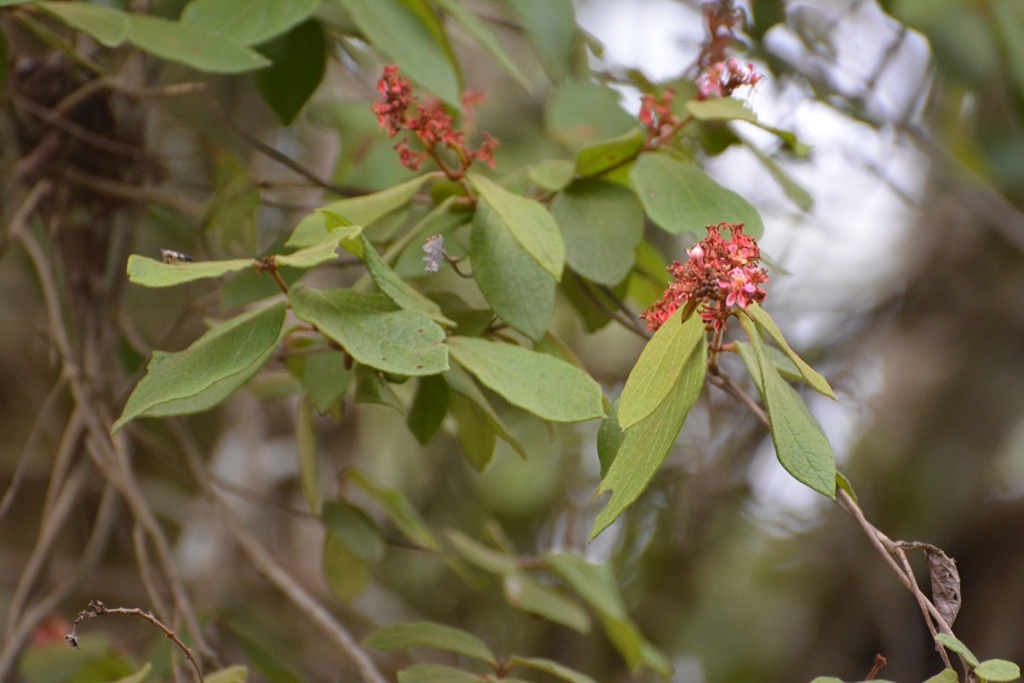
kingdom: Plantae
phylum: Tracheophyta
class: Magnoliopsida
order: Malpighiales
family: Malpighiaceae
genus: Heteropterys
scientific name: Heteropterys brachiata
